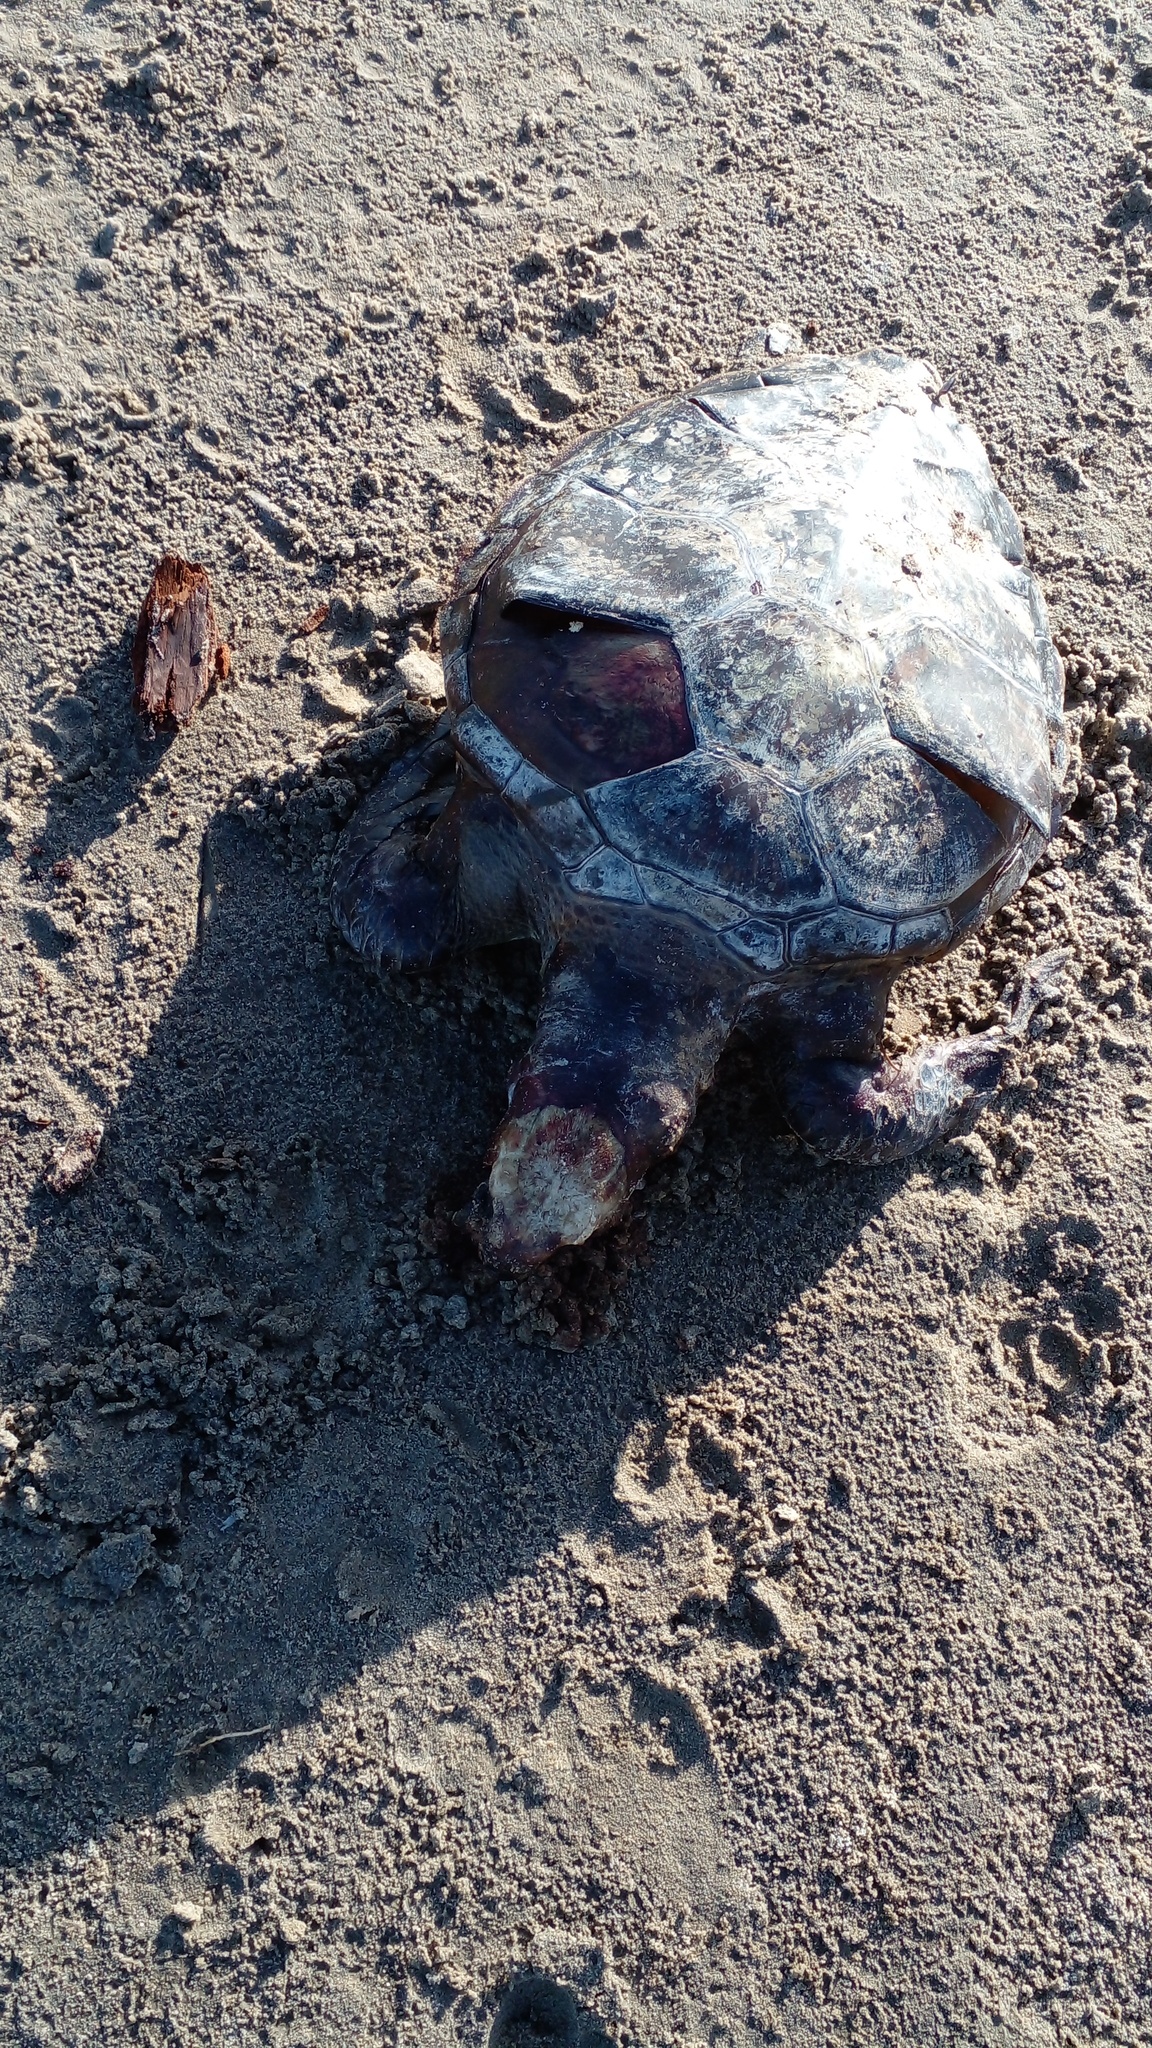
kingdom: Animalia
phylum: Chordata
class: Testudines
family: Cheloniidae
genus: Chelonia
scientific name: Chelonia mydas
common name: Green turtle
